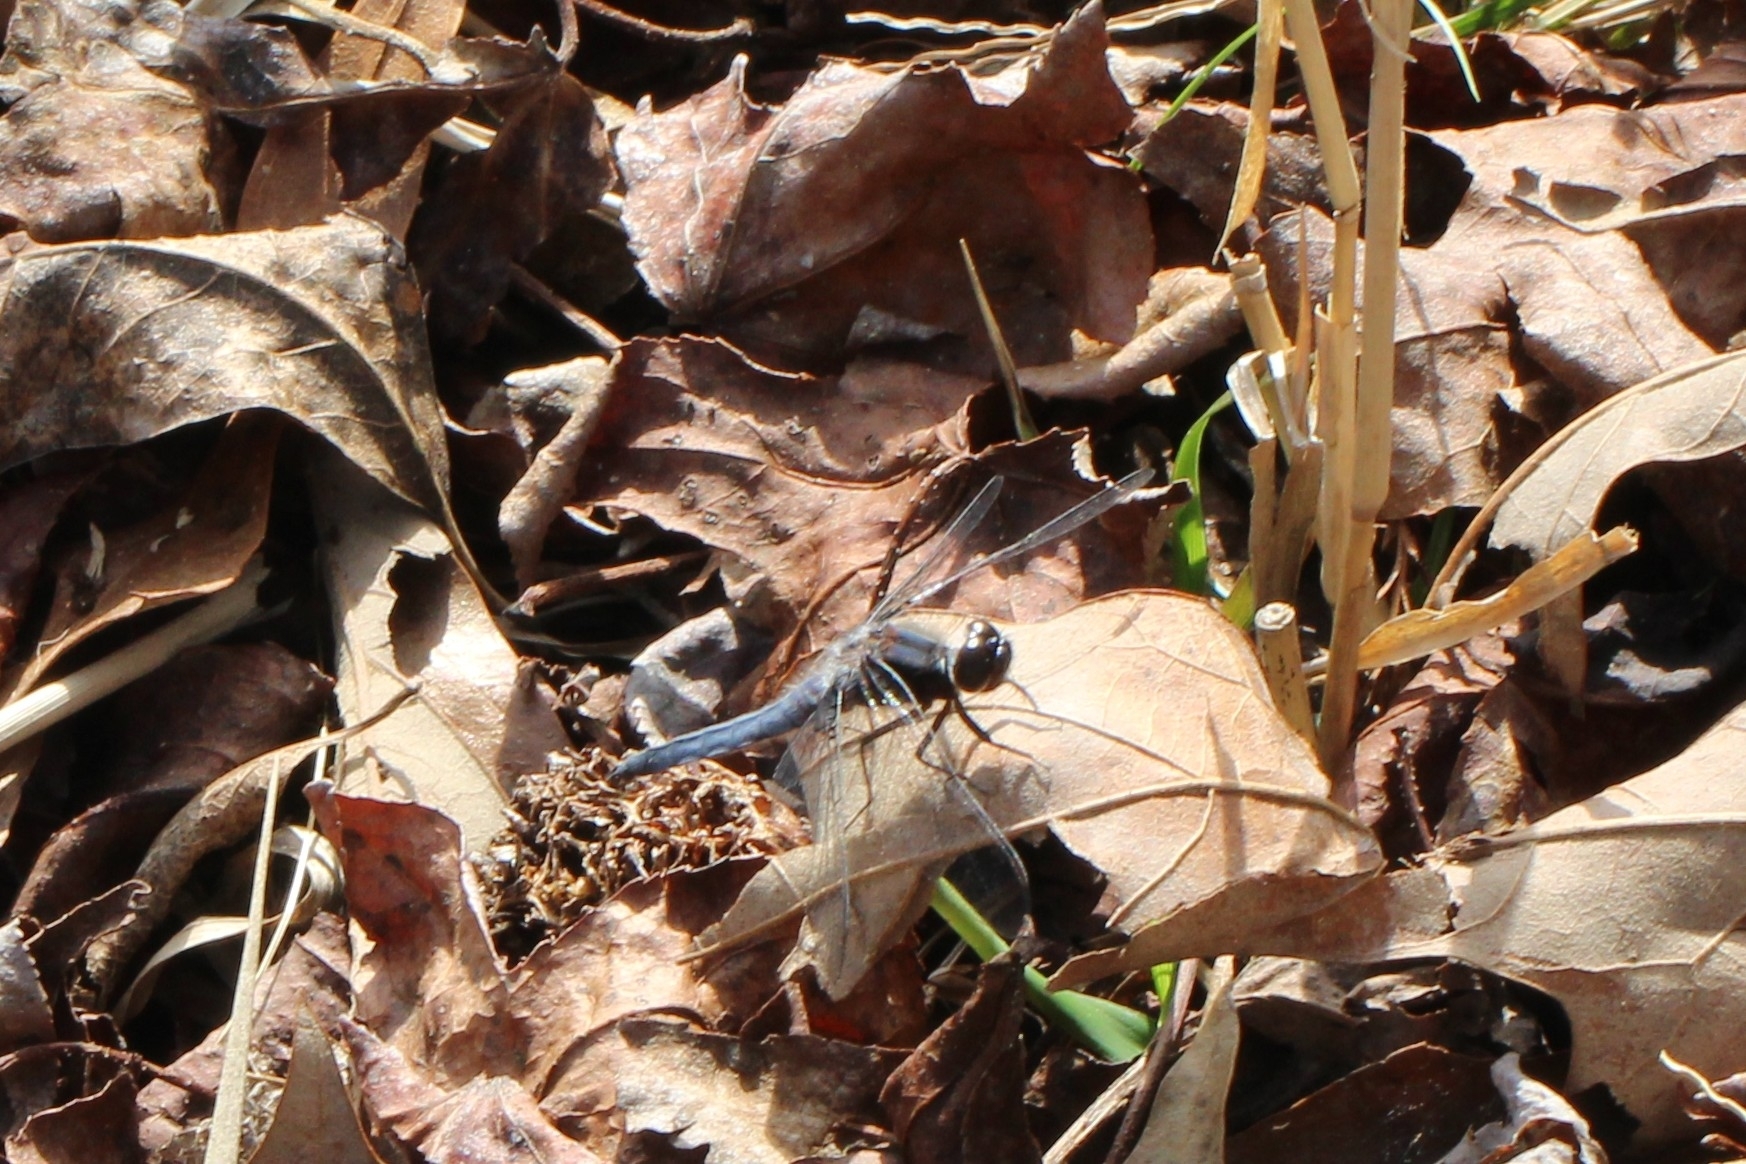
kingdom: Animalia
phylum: Arthropoda
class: Insecta
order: Odonata
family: Libellulidae
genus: Ladona
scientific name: Ladona deplanata
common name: Blue corporal
